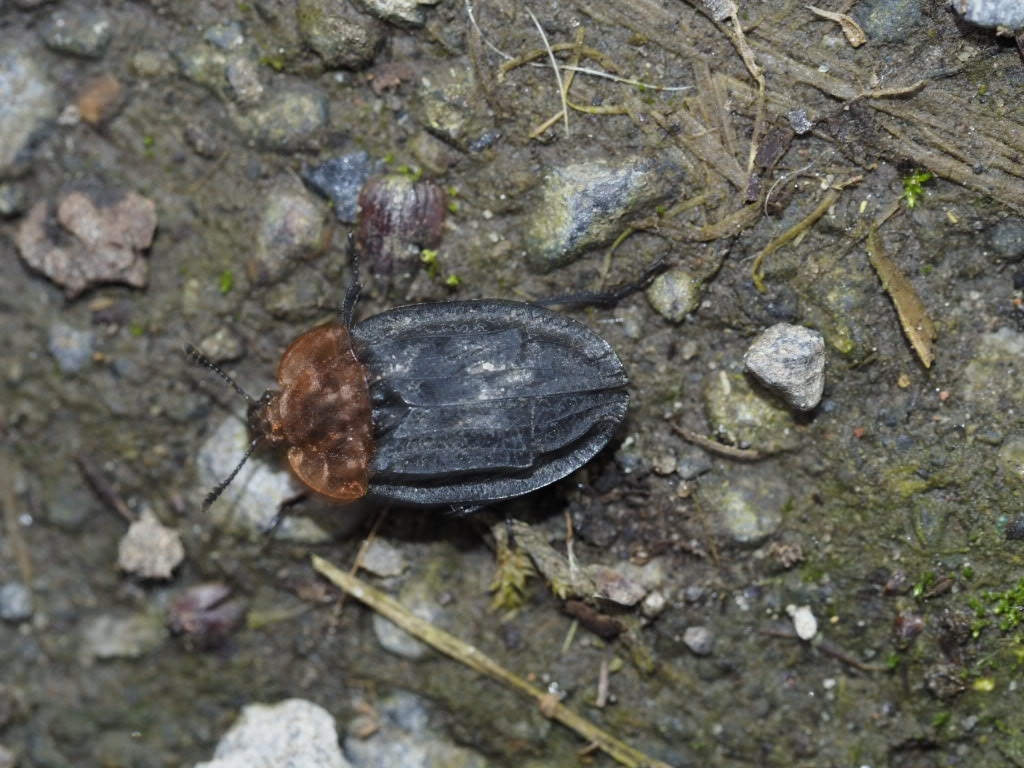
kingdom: Animalia
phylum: Arthropoda
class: Insecta
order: Coleoptera
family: Staphylinidae
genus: Oiceoptoma
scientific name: Oiceoptoma thoracicum
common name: Red-breasted carrion beetle
